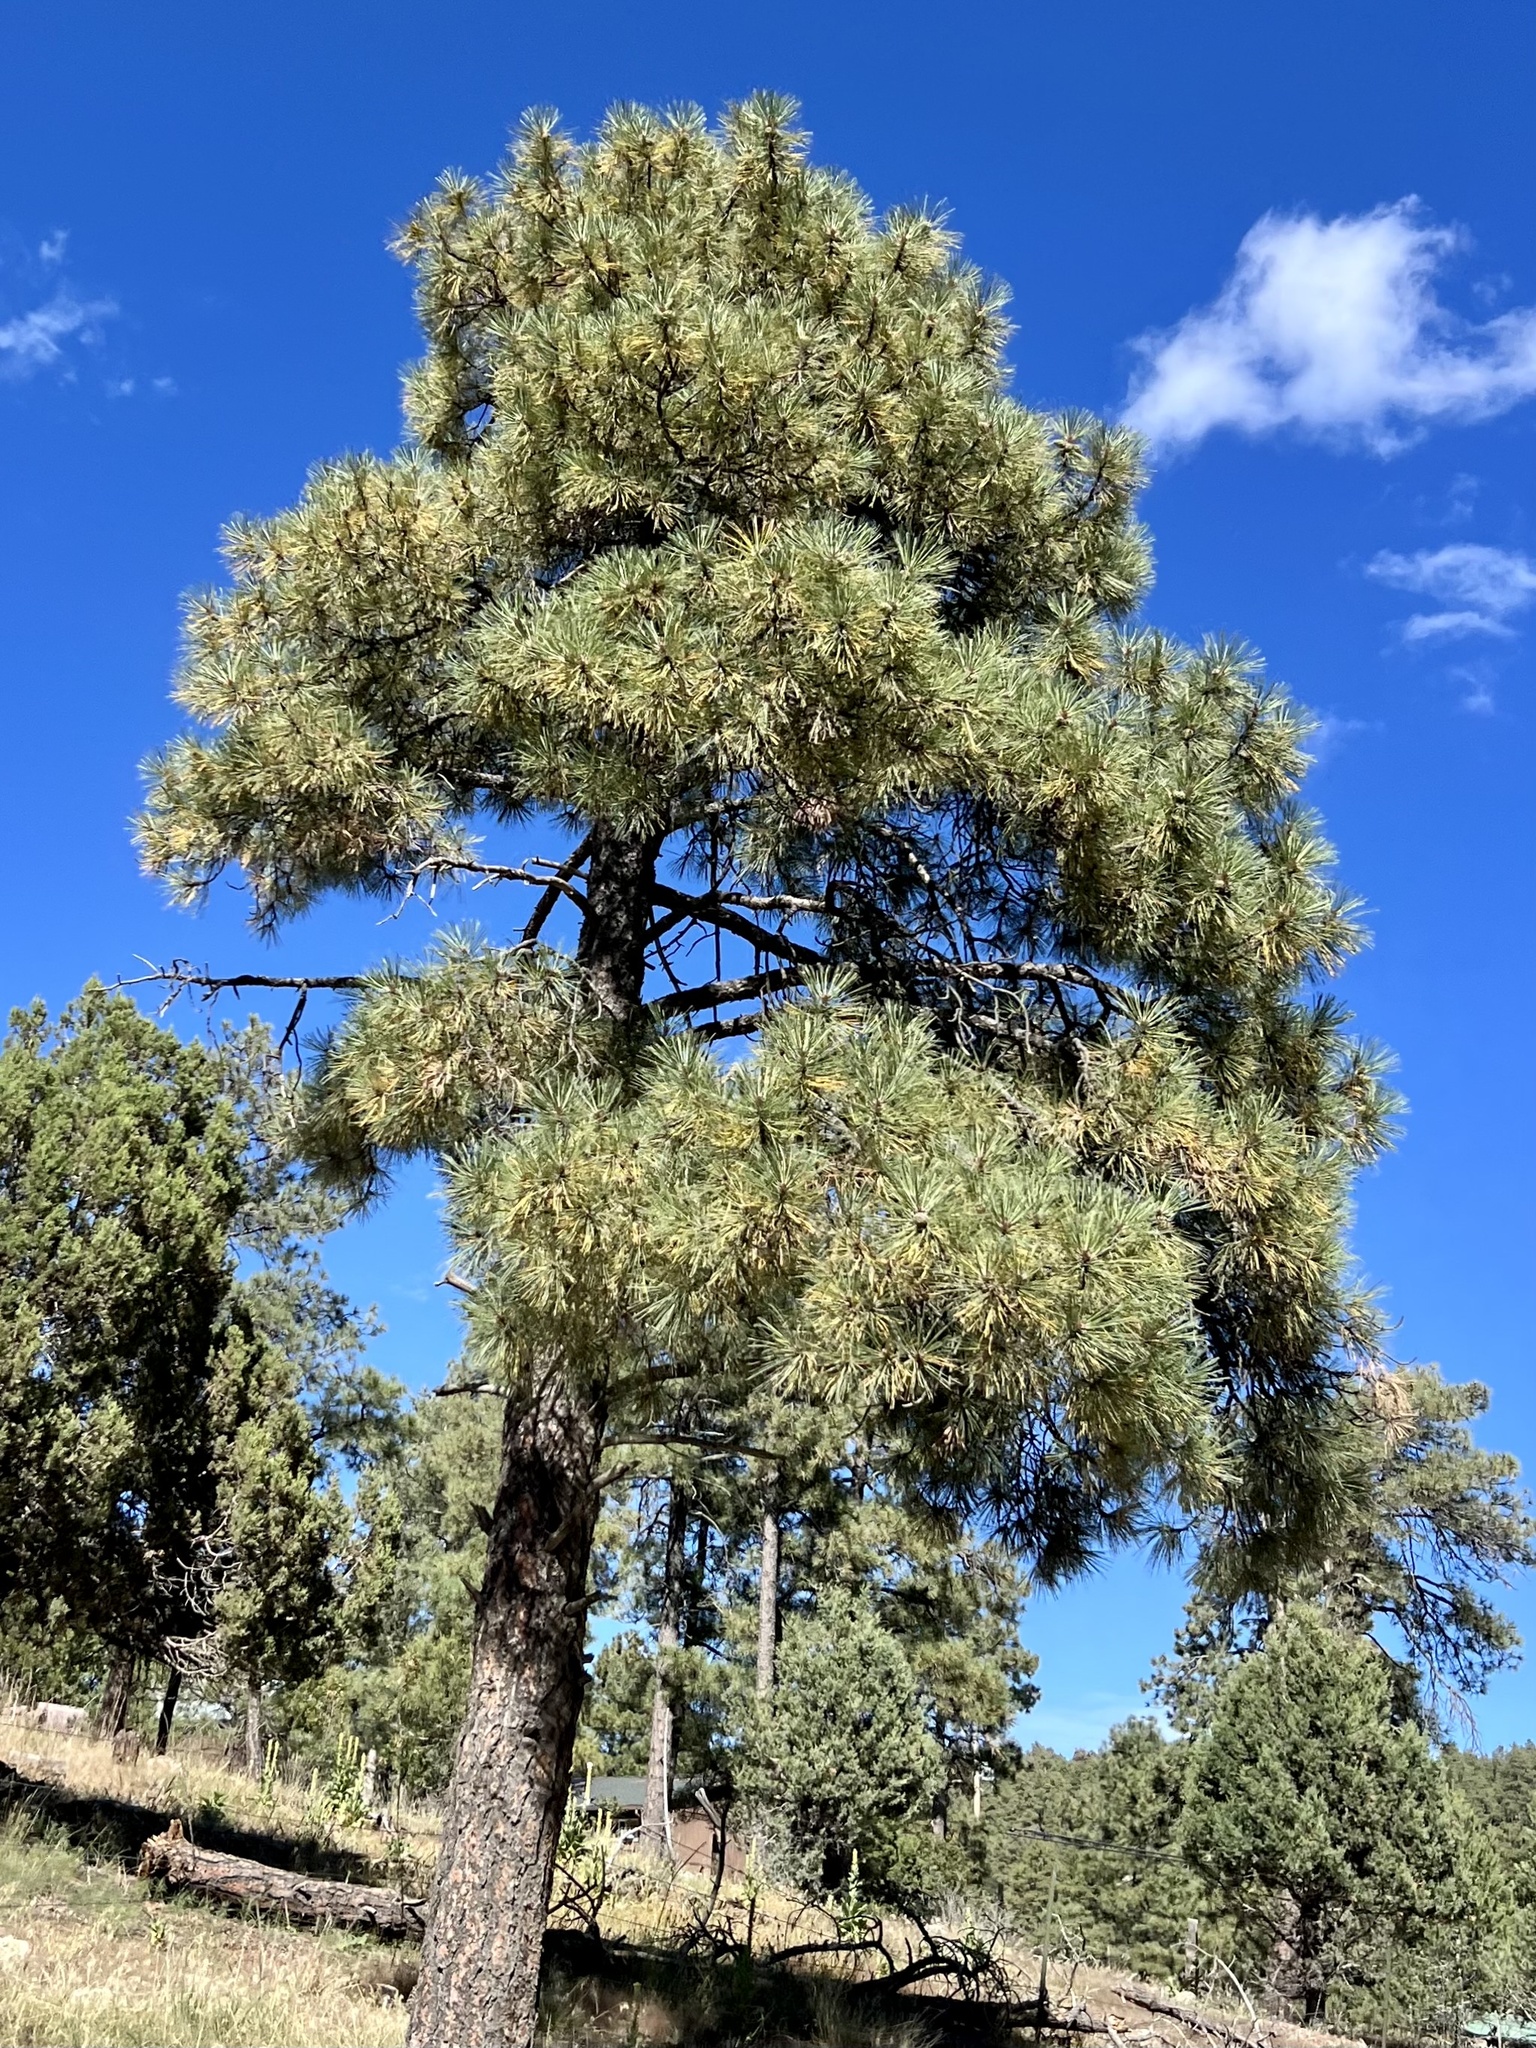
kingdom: Plantae
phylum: Tracheophyta
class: Pinopsida
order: Pinales
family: Pinaceae
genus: Pinus
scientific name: Pinus ponderosa
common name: Western yellow-pine
